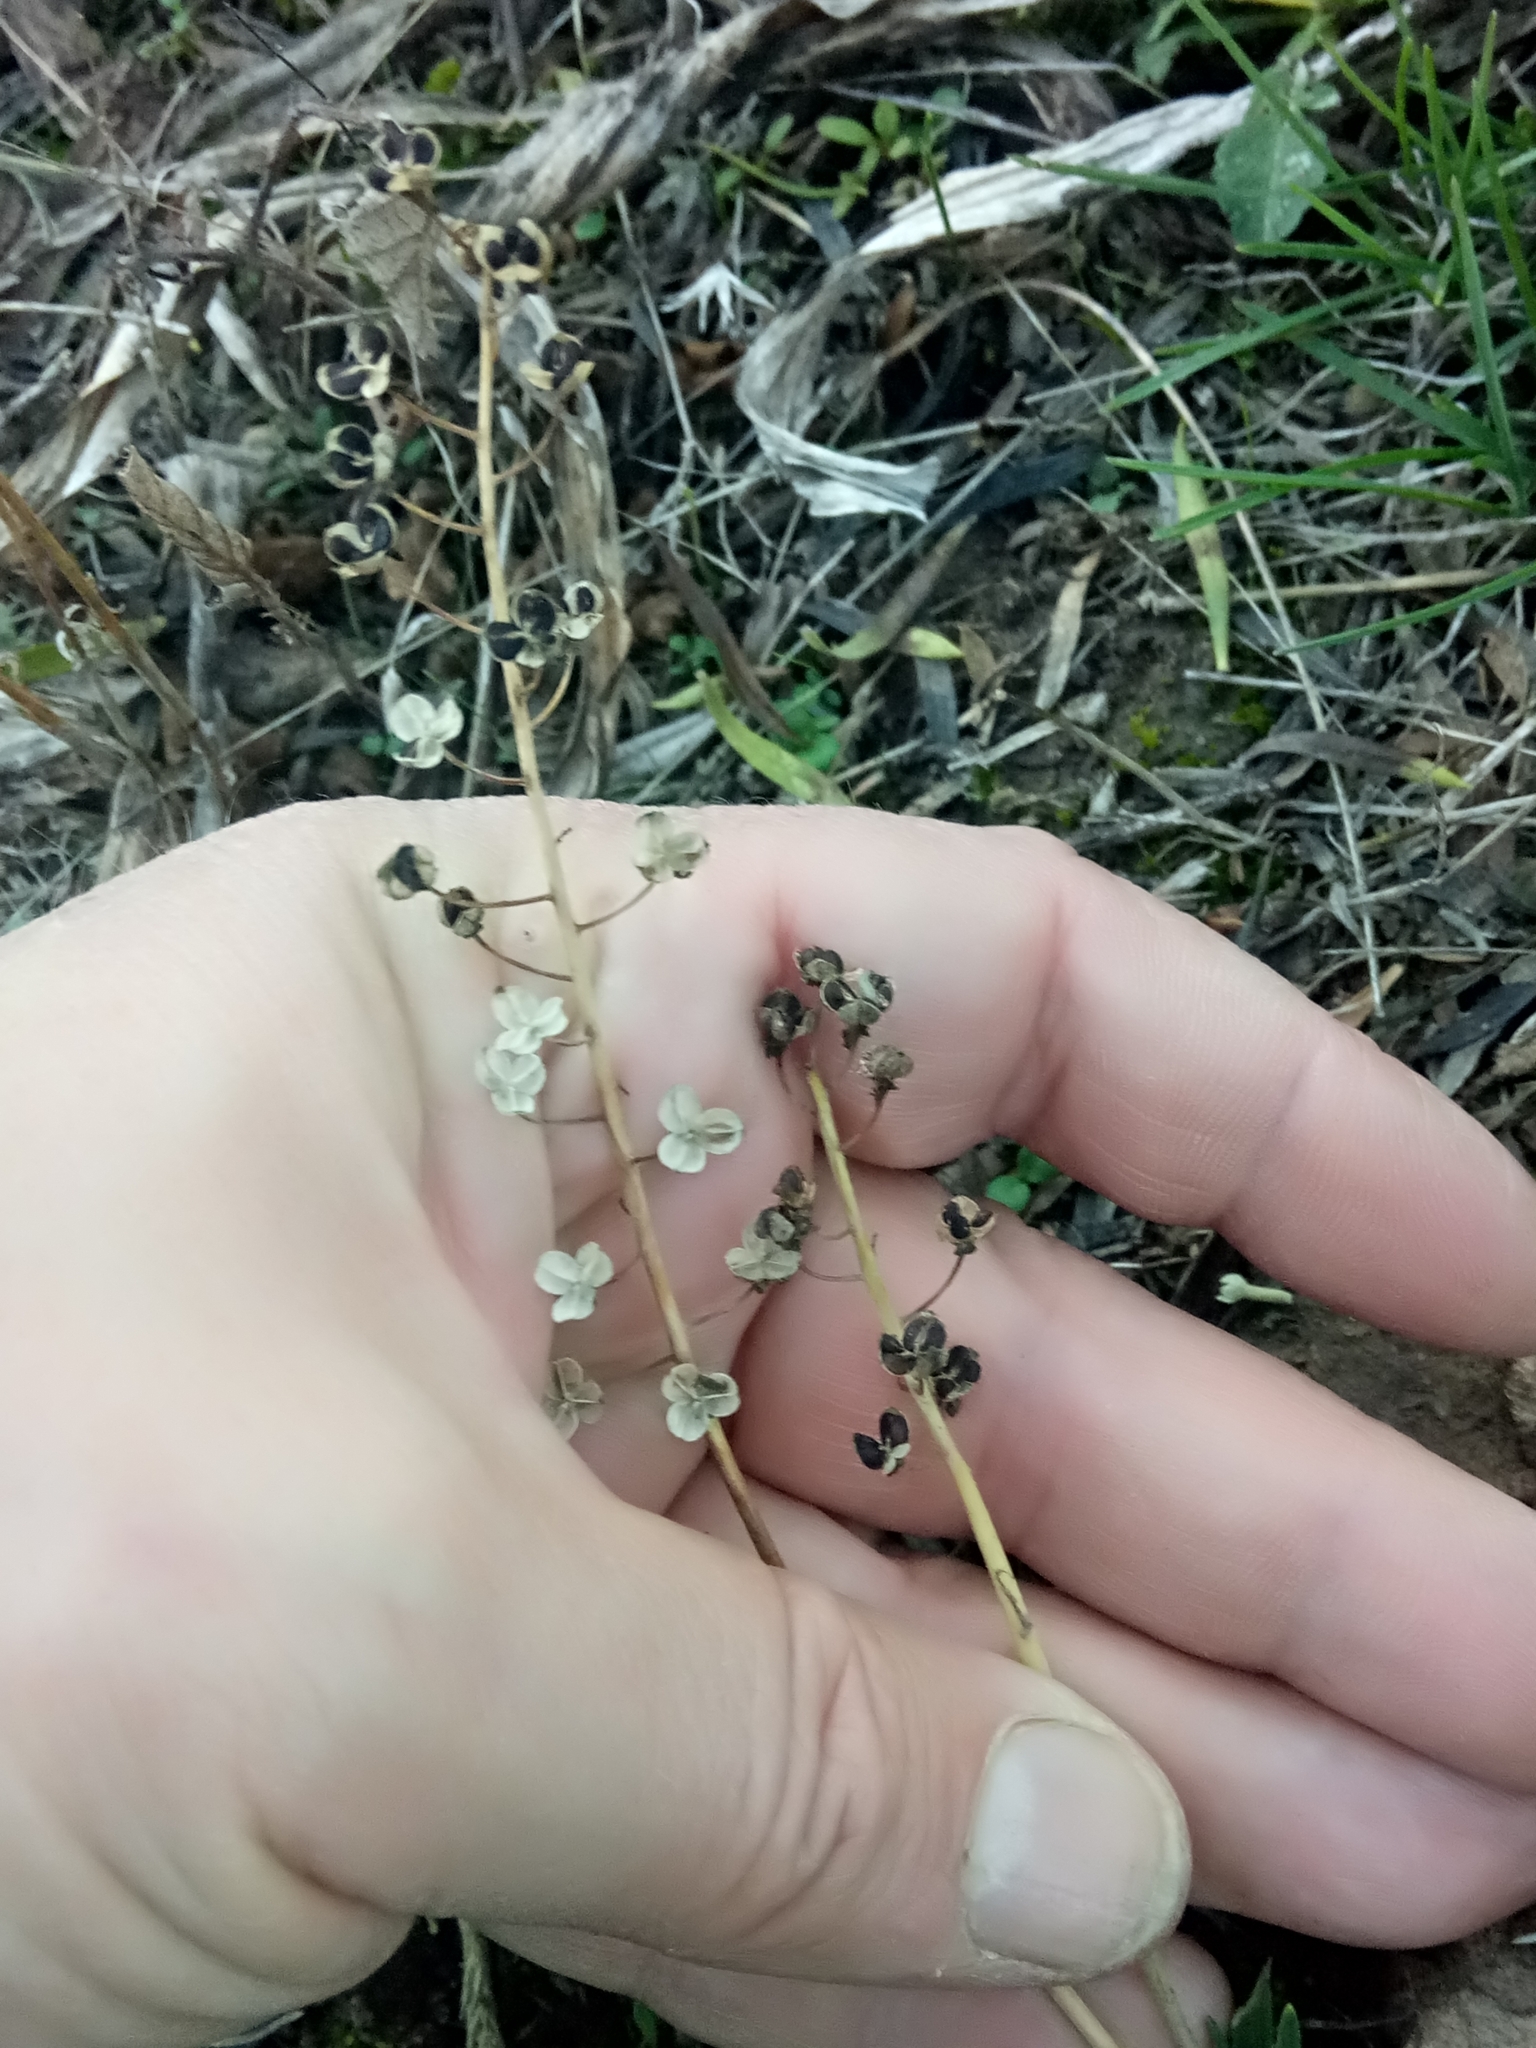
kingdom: Plantae
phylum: Tracheophyta
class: Liliopsida
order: Asparagales
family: Asparagaceae
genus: Prospero
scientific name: Prospero fallax
